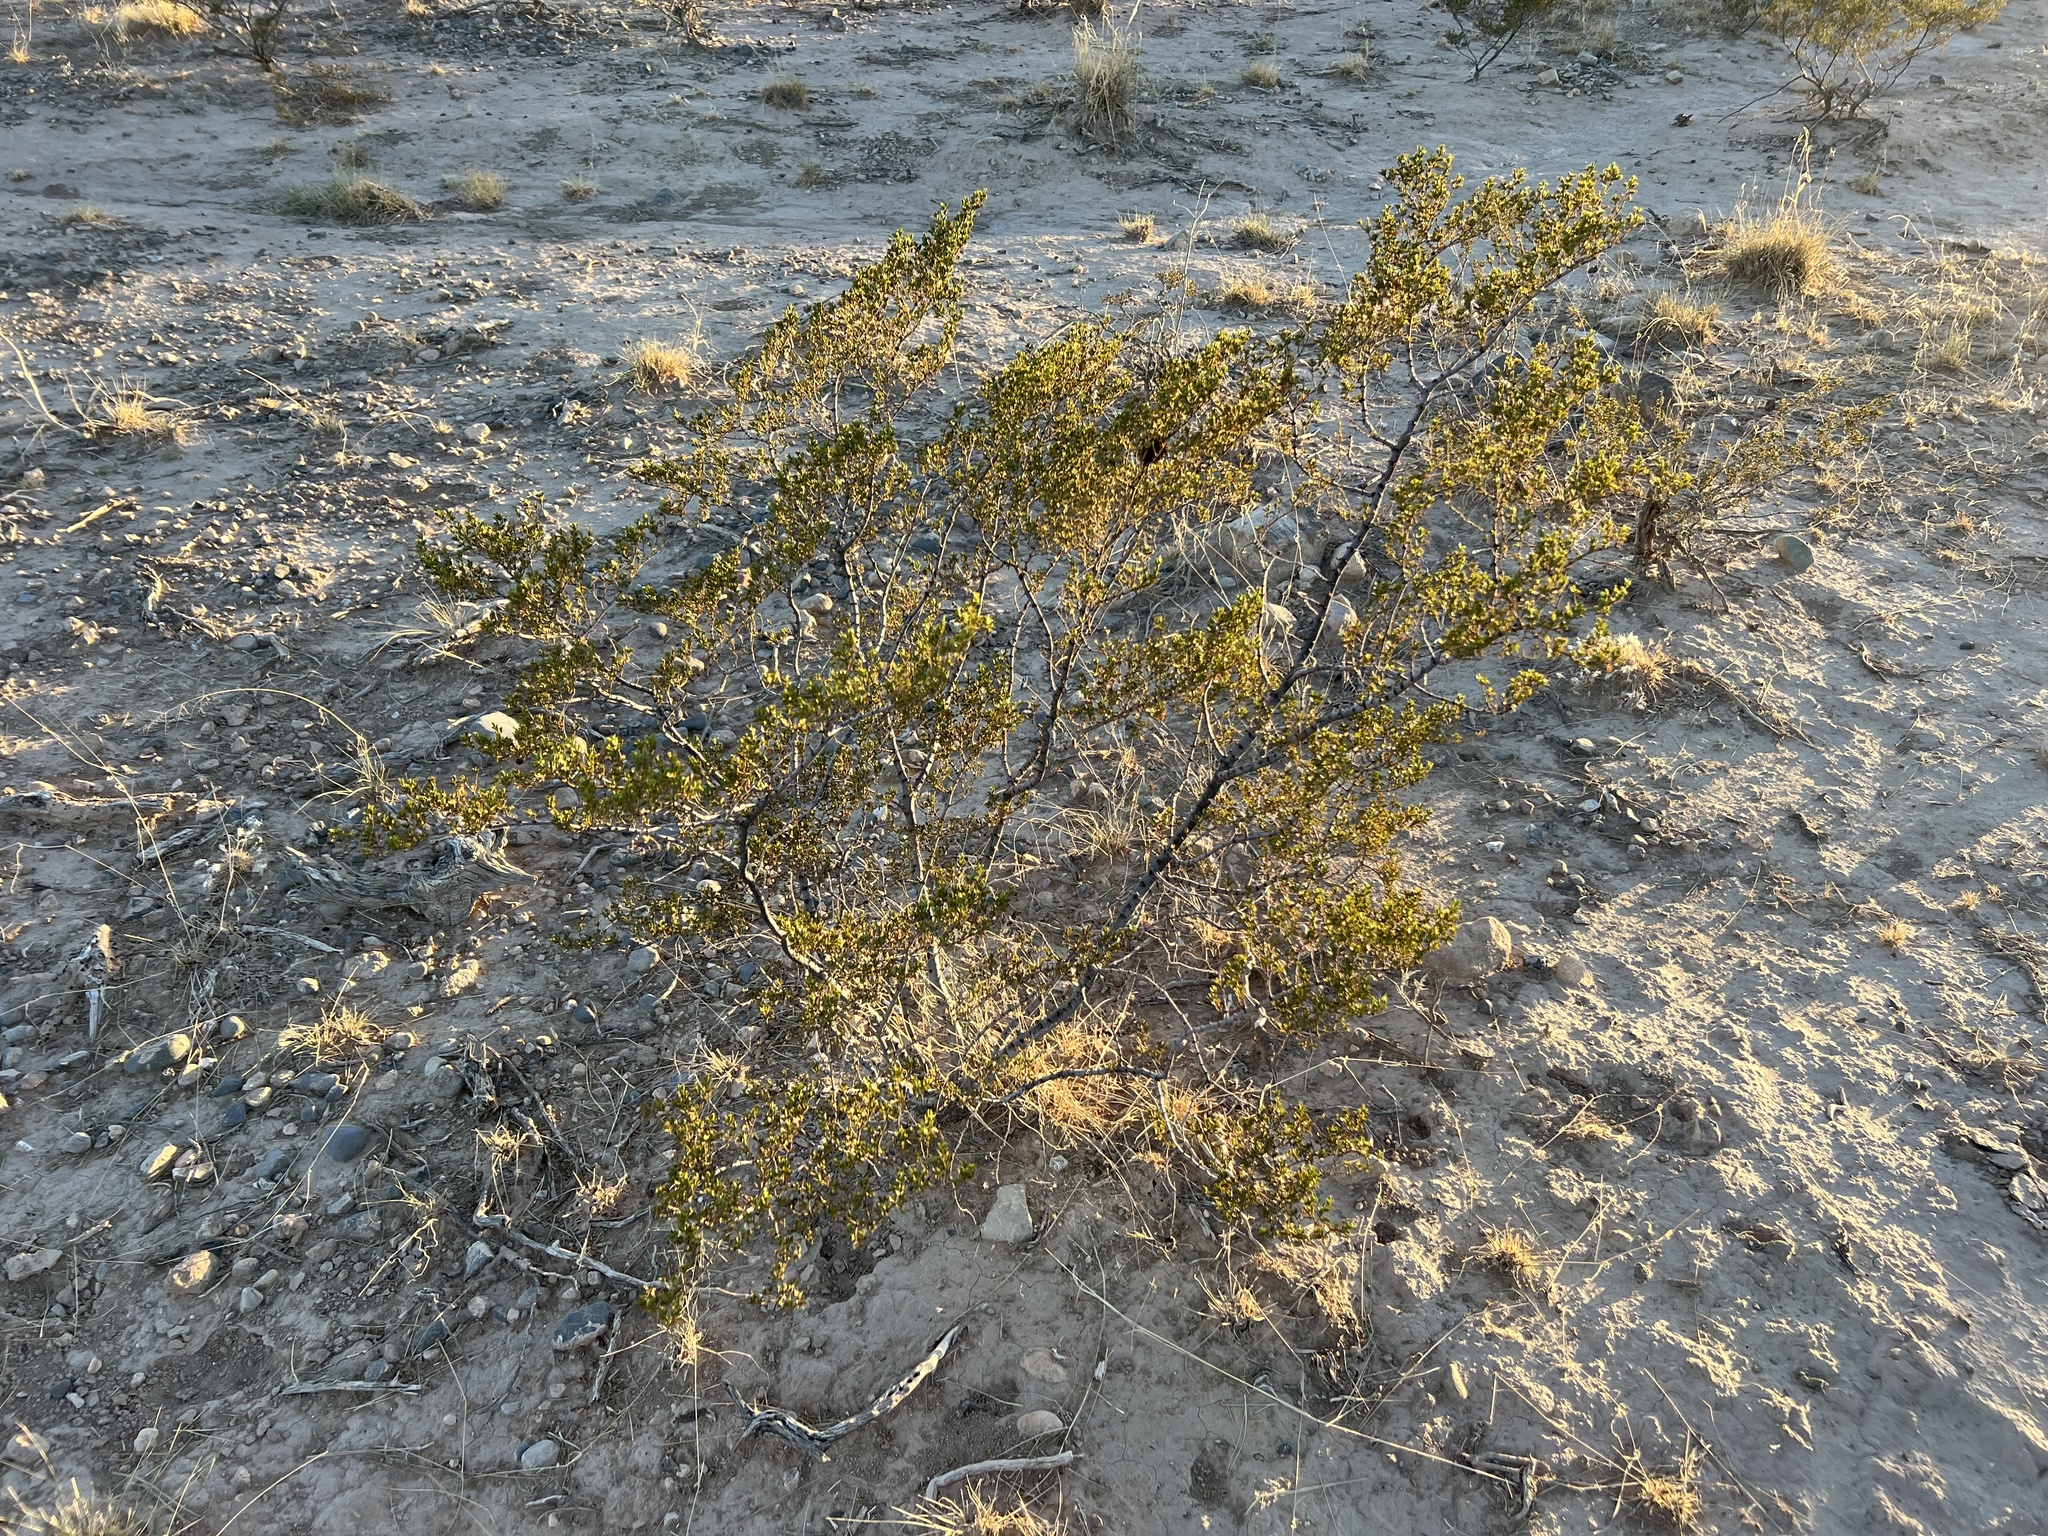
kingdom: Plantae
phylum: Tracheophyta
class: Magnoliopsida
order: Zygophyllales
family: Zygophyllaceae
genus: Larrea
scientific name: Larrea tridentata
